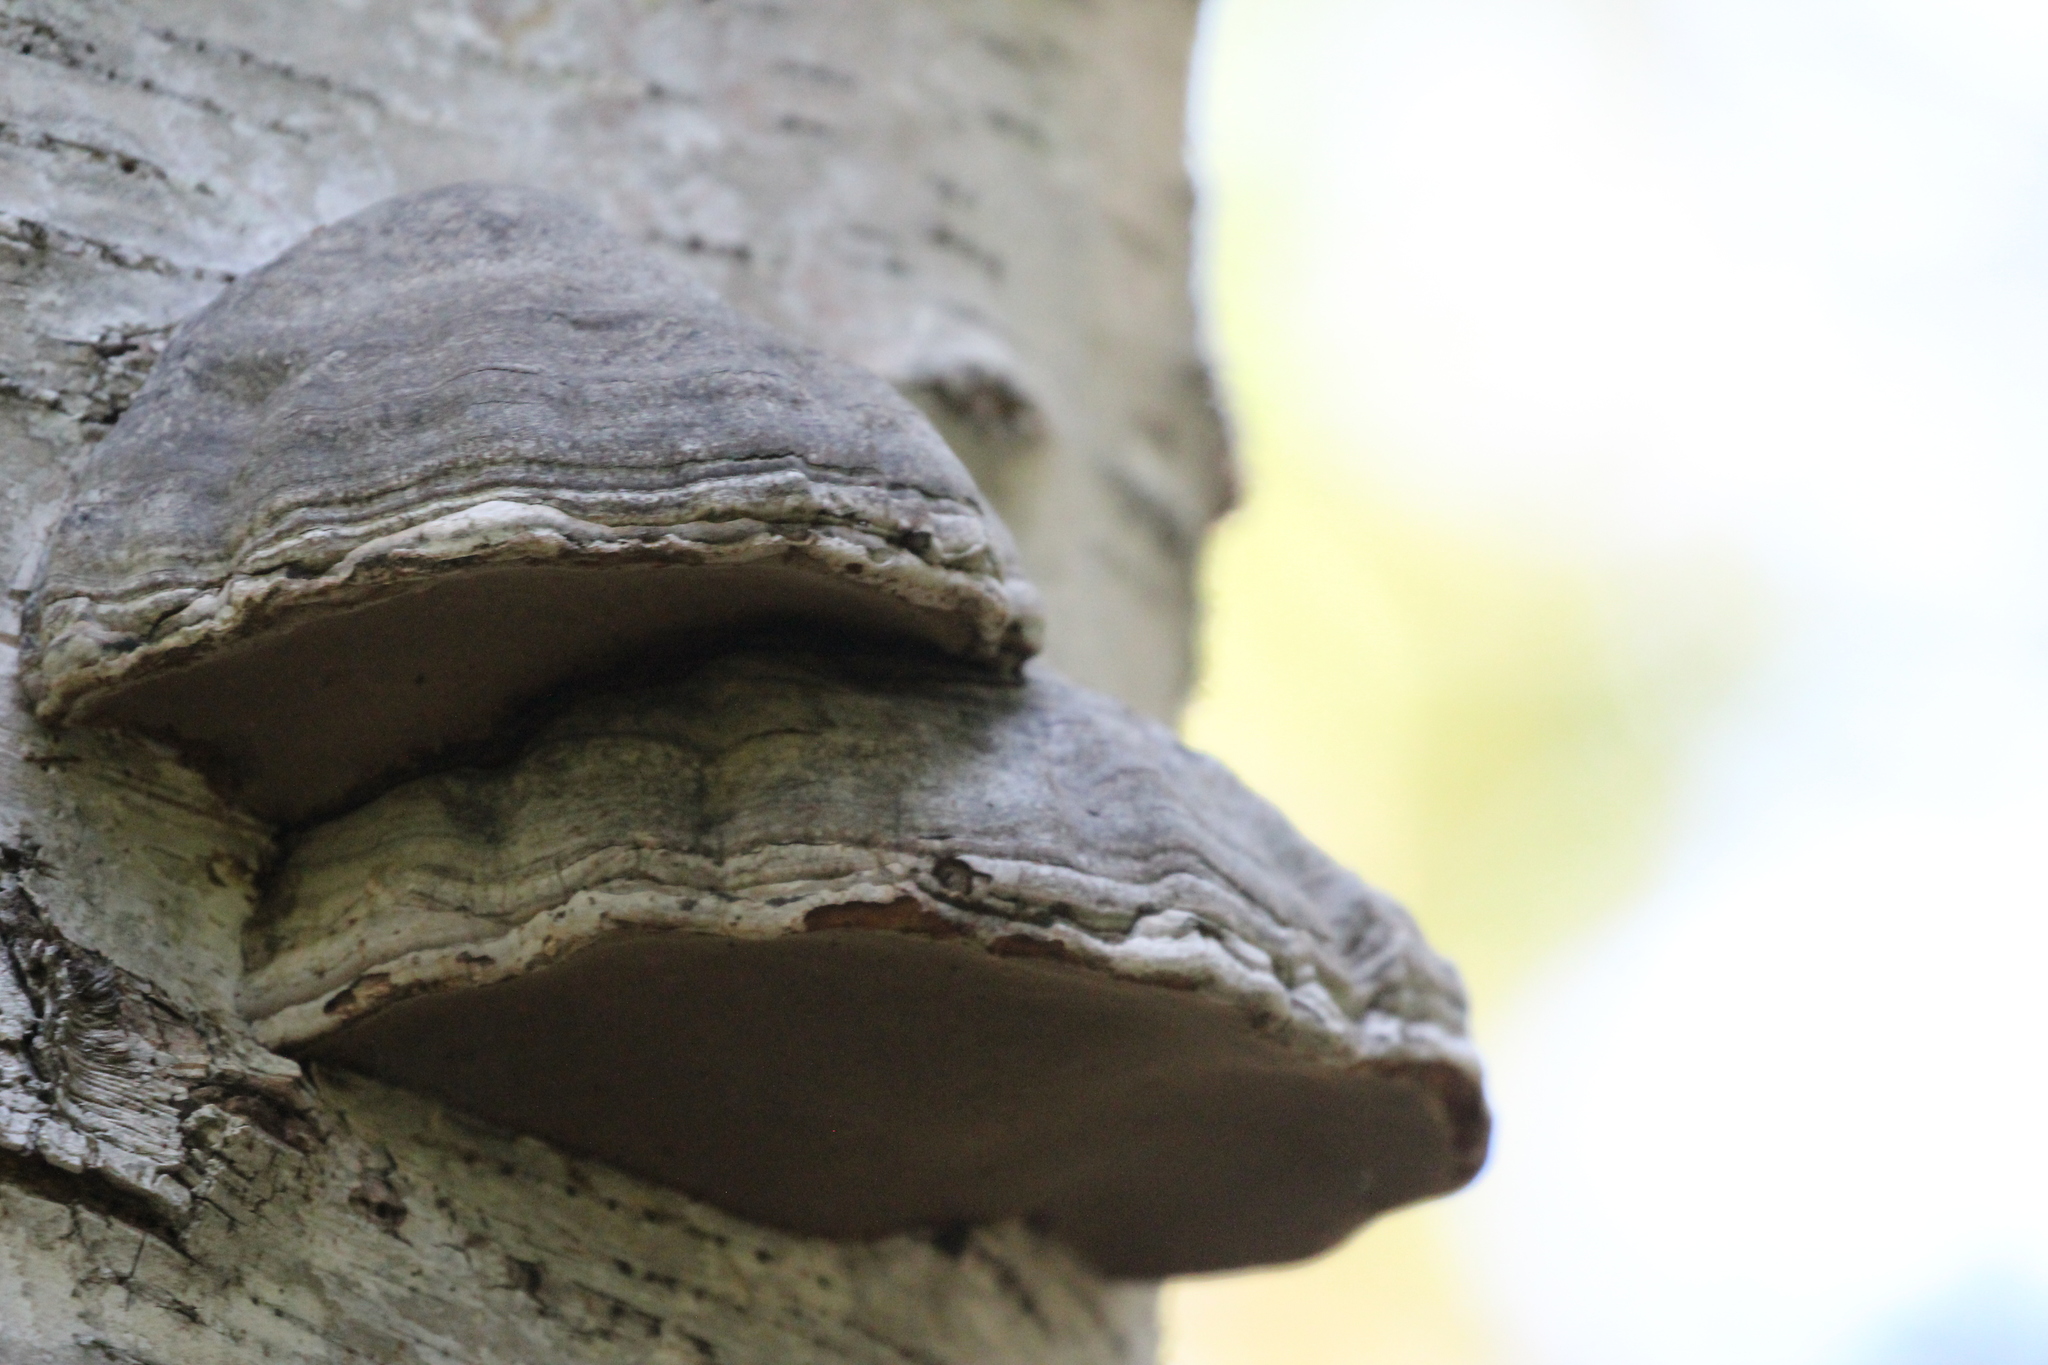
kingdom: Fungi
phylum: Basidiomycota
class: Agaricomycetes
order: Polyporales
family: Polyporaceae
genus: Fomes
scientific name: Fomes fomentarius
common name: Hoof fungus
